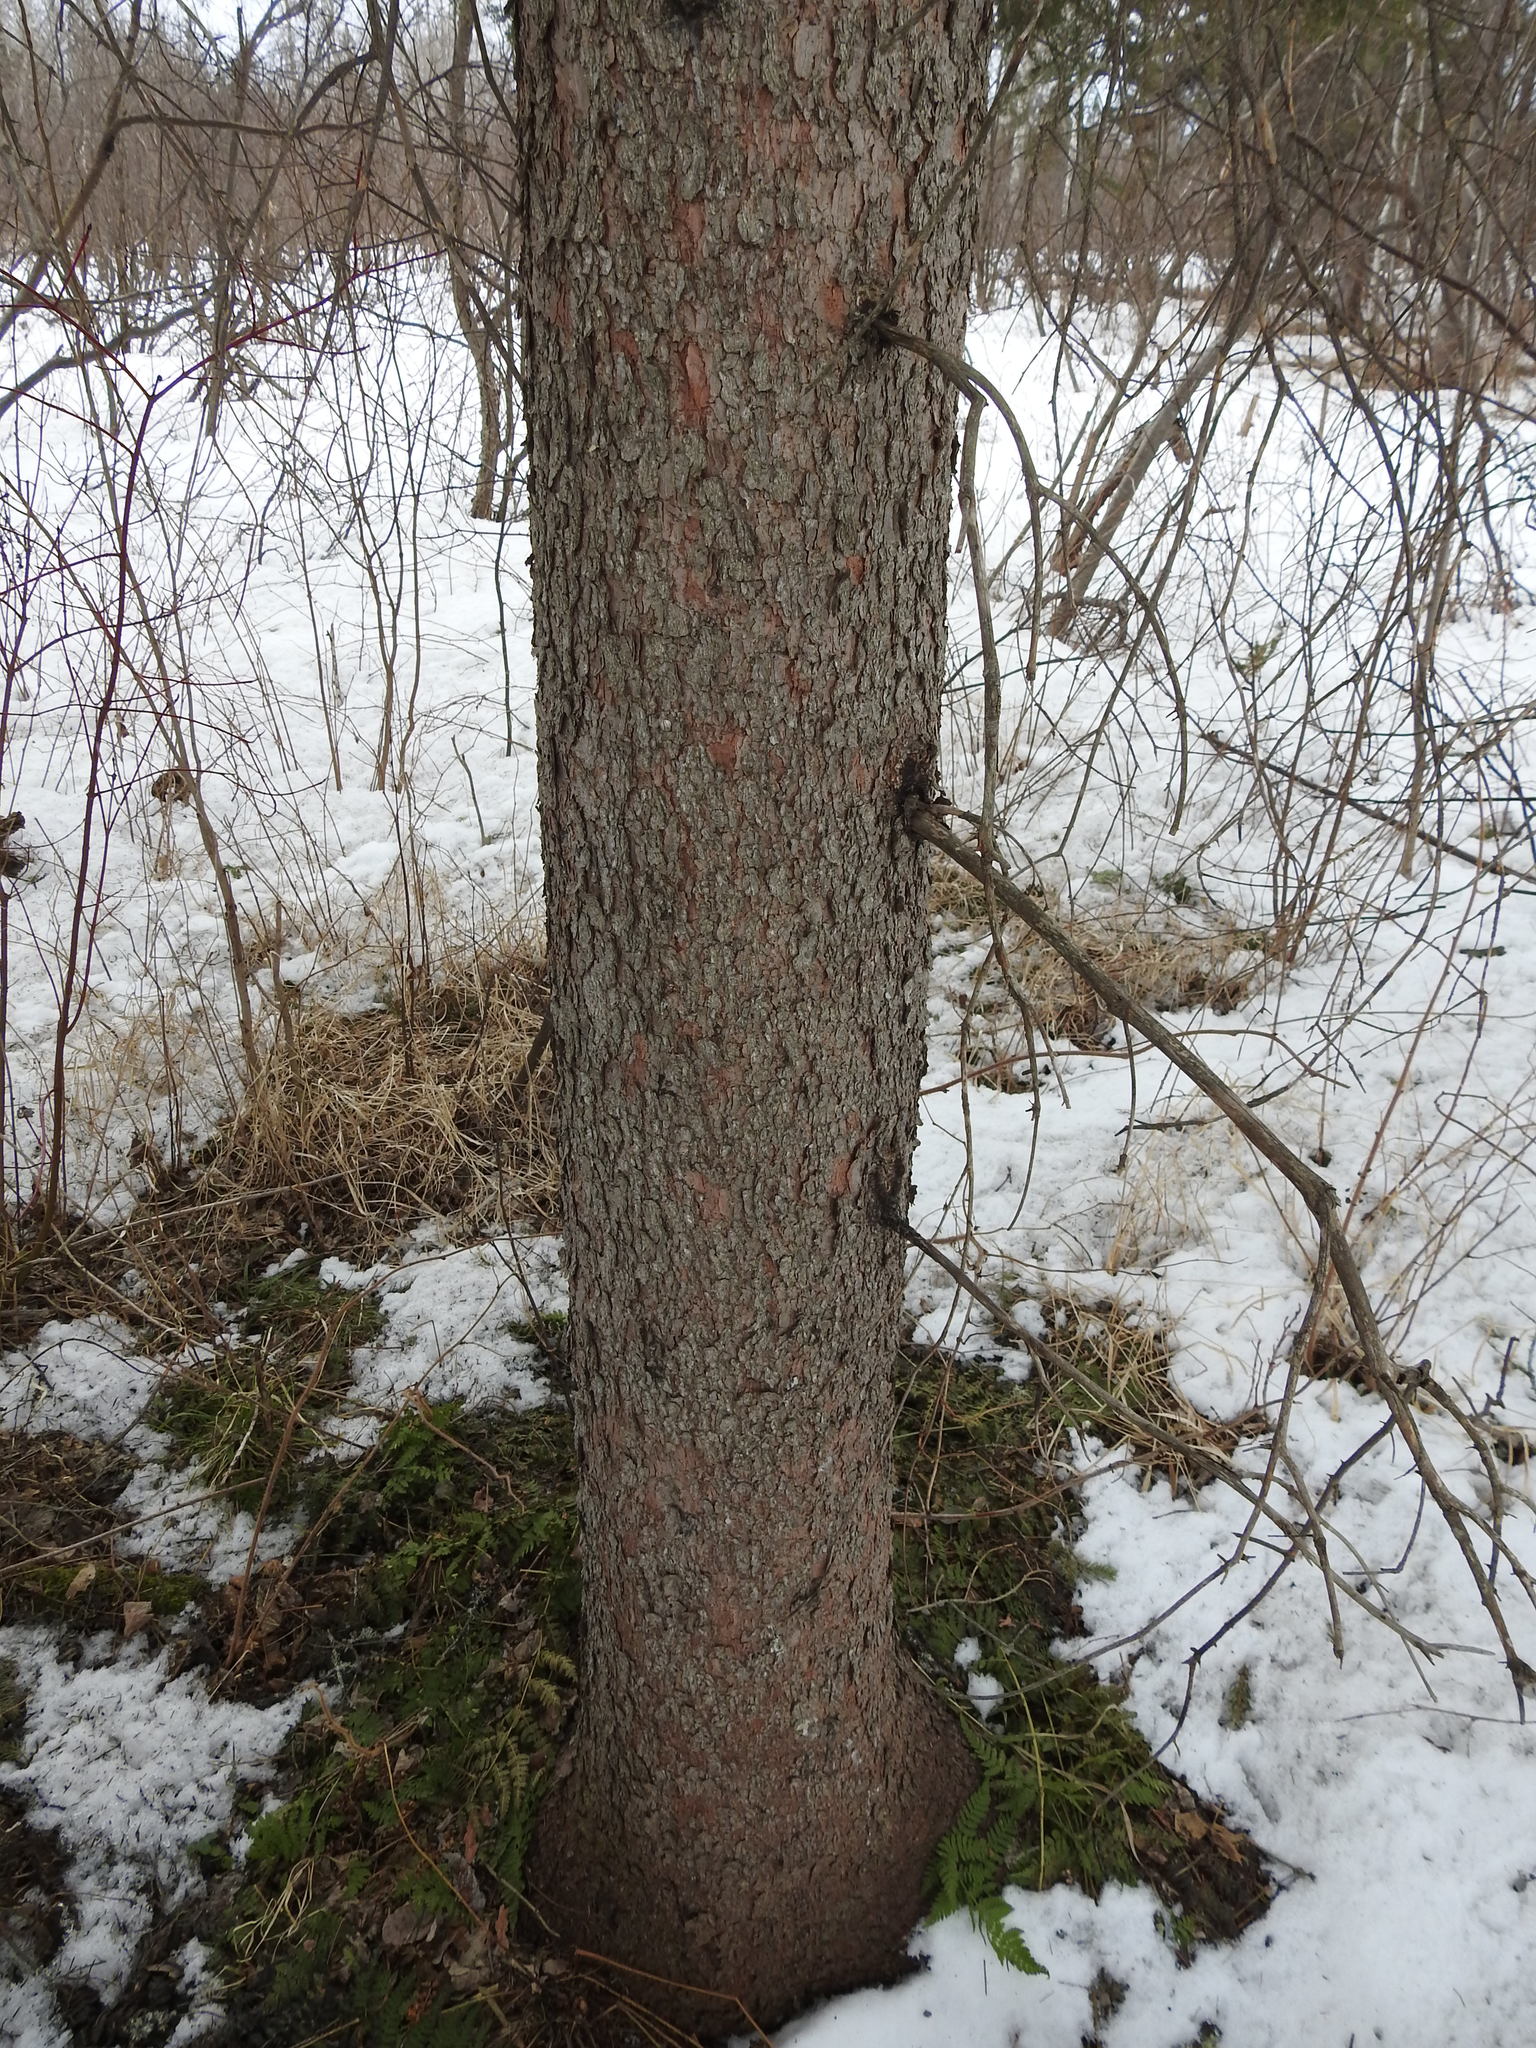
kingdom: Plantae
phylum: Tracheophyta
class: Pinopsida
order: Pinales
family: Pinaceae
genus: Picea
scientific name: Picea glauca
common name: White spruce
